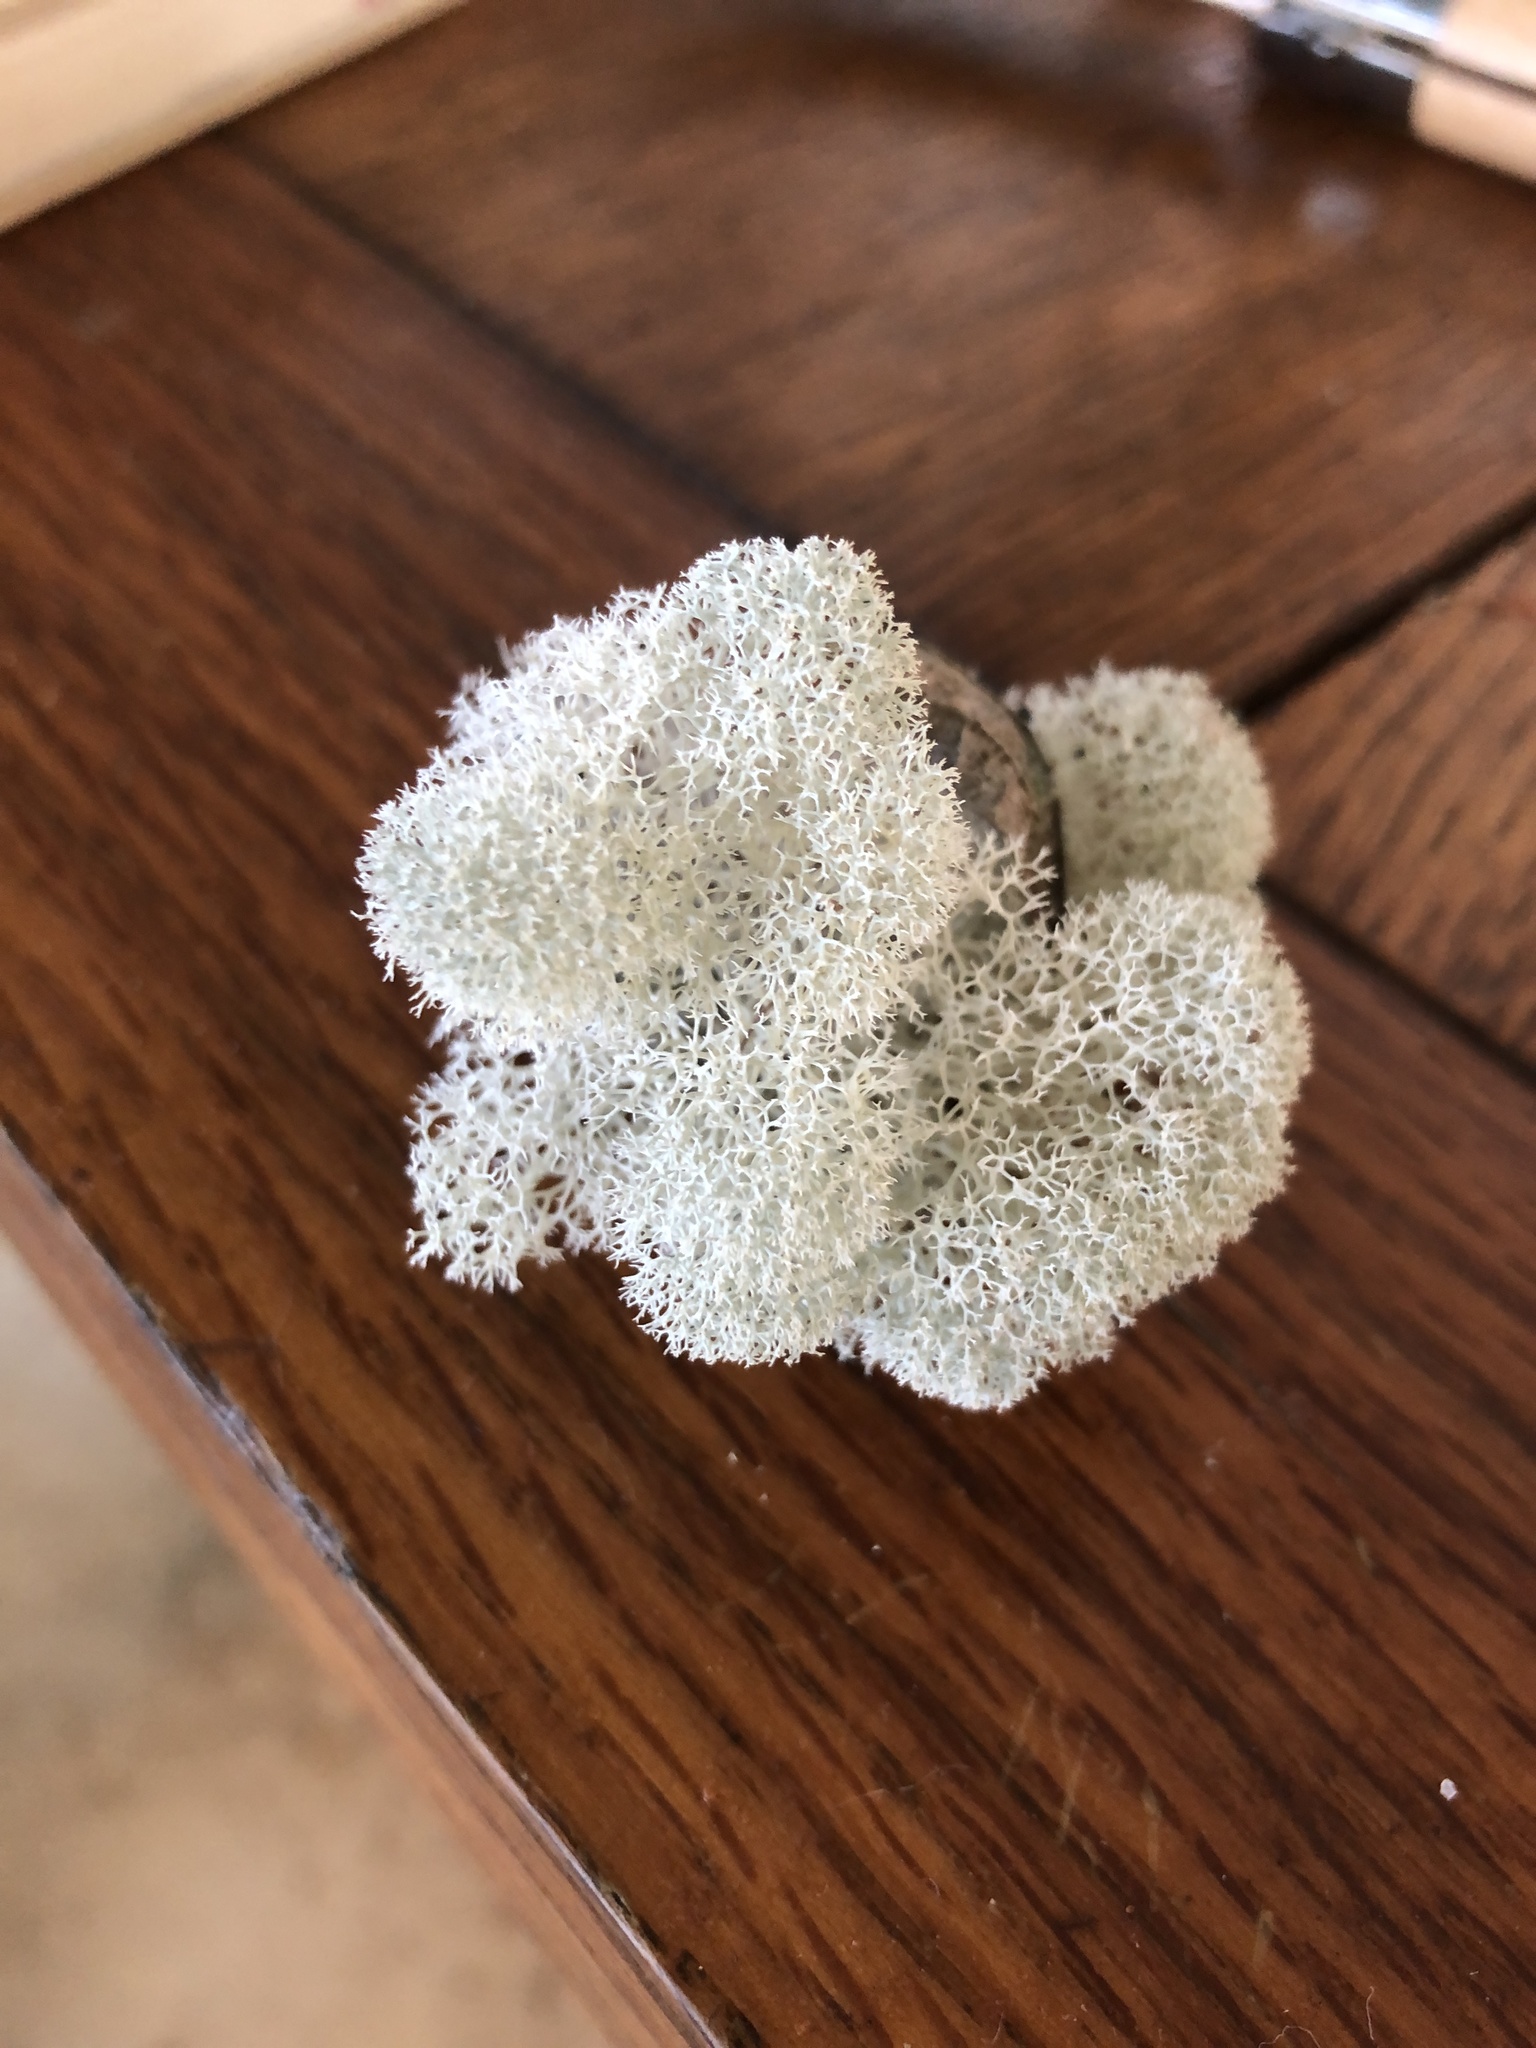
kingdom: Fungi
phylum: Ascomycota
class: Lecanoromycetes
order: Lecanorales
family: Cladoniaceae
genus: Cladonia
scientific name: Cladonia evansii
